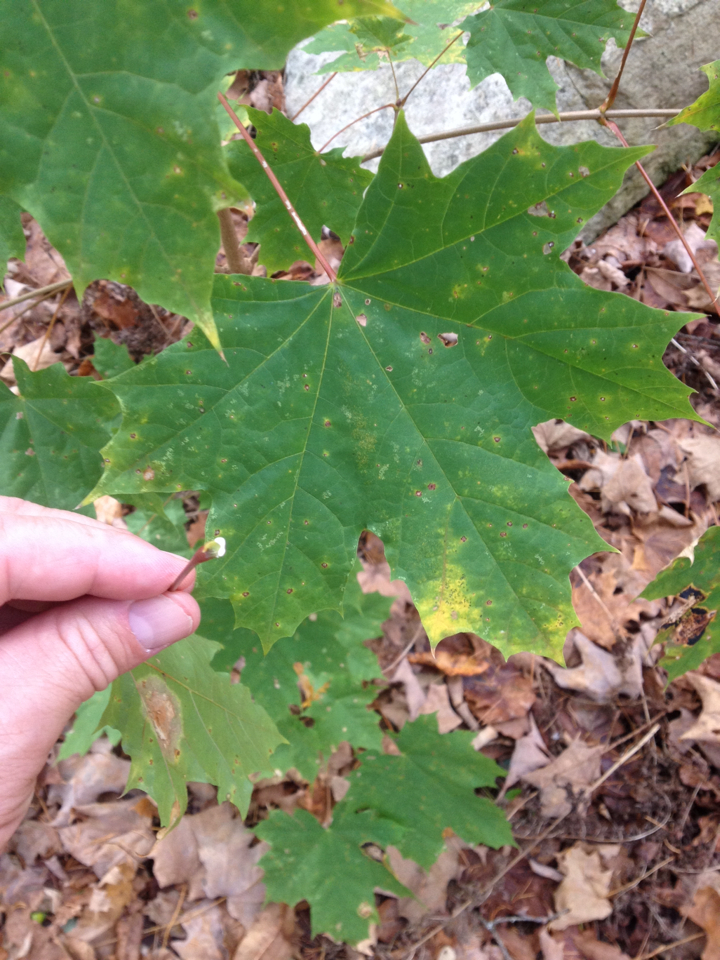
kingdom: Plantae
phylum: Tracheophyta
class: Magnoliopsida
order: Sapindales
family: Sapindaceae
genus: Acer
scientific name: Acer platanoides
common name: Norway maple
